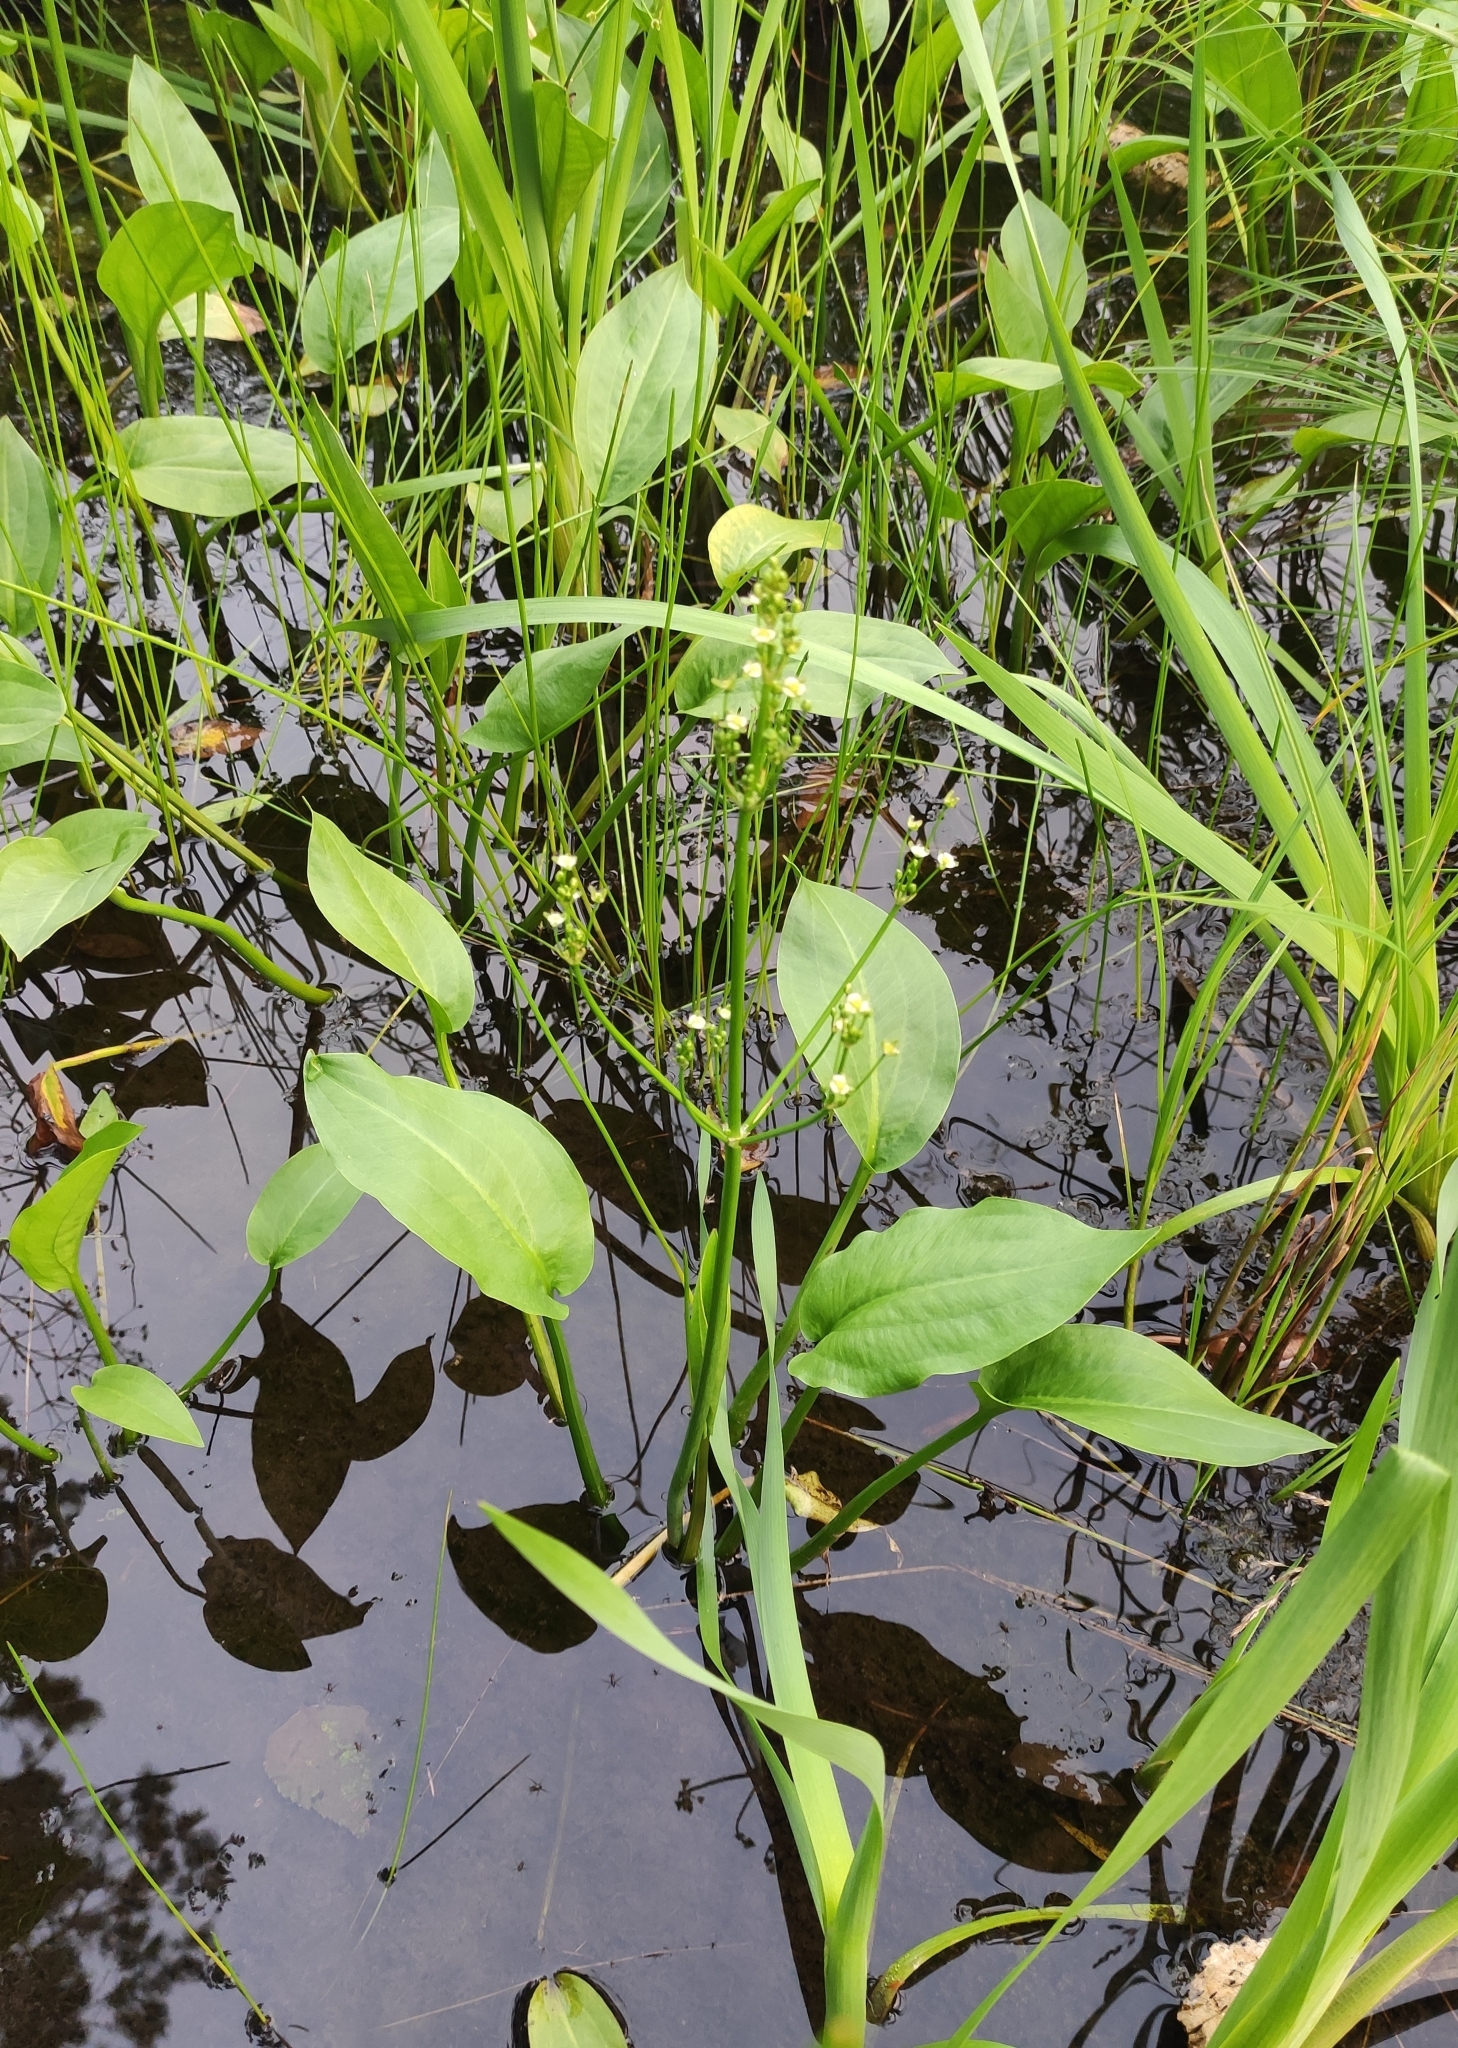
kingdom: Plantae
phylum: Tracheophyta
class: Liliopsida
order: Alismatales
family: Alismataceae
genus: Alisma
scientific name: Alisma plantago-aquatica
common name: Water-plantain
